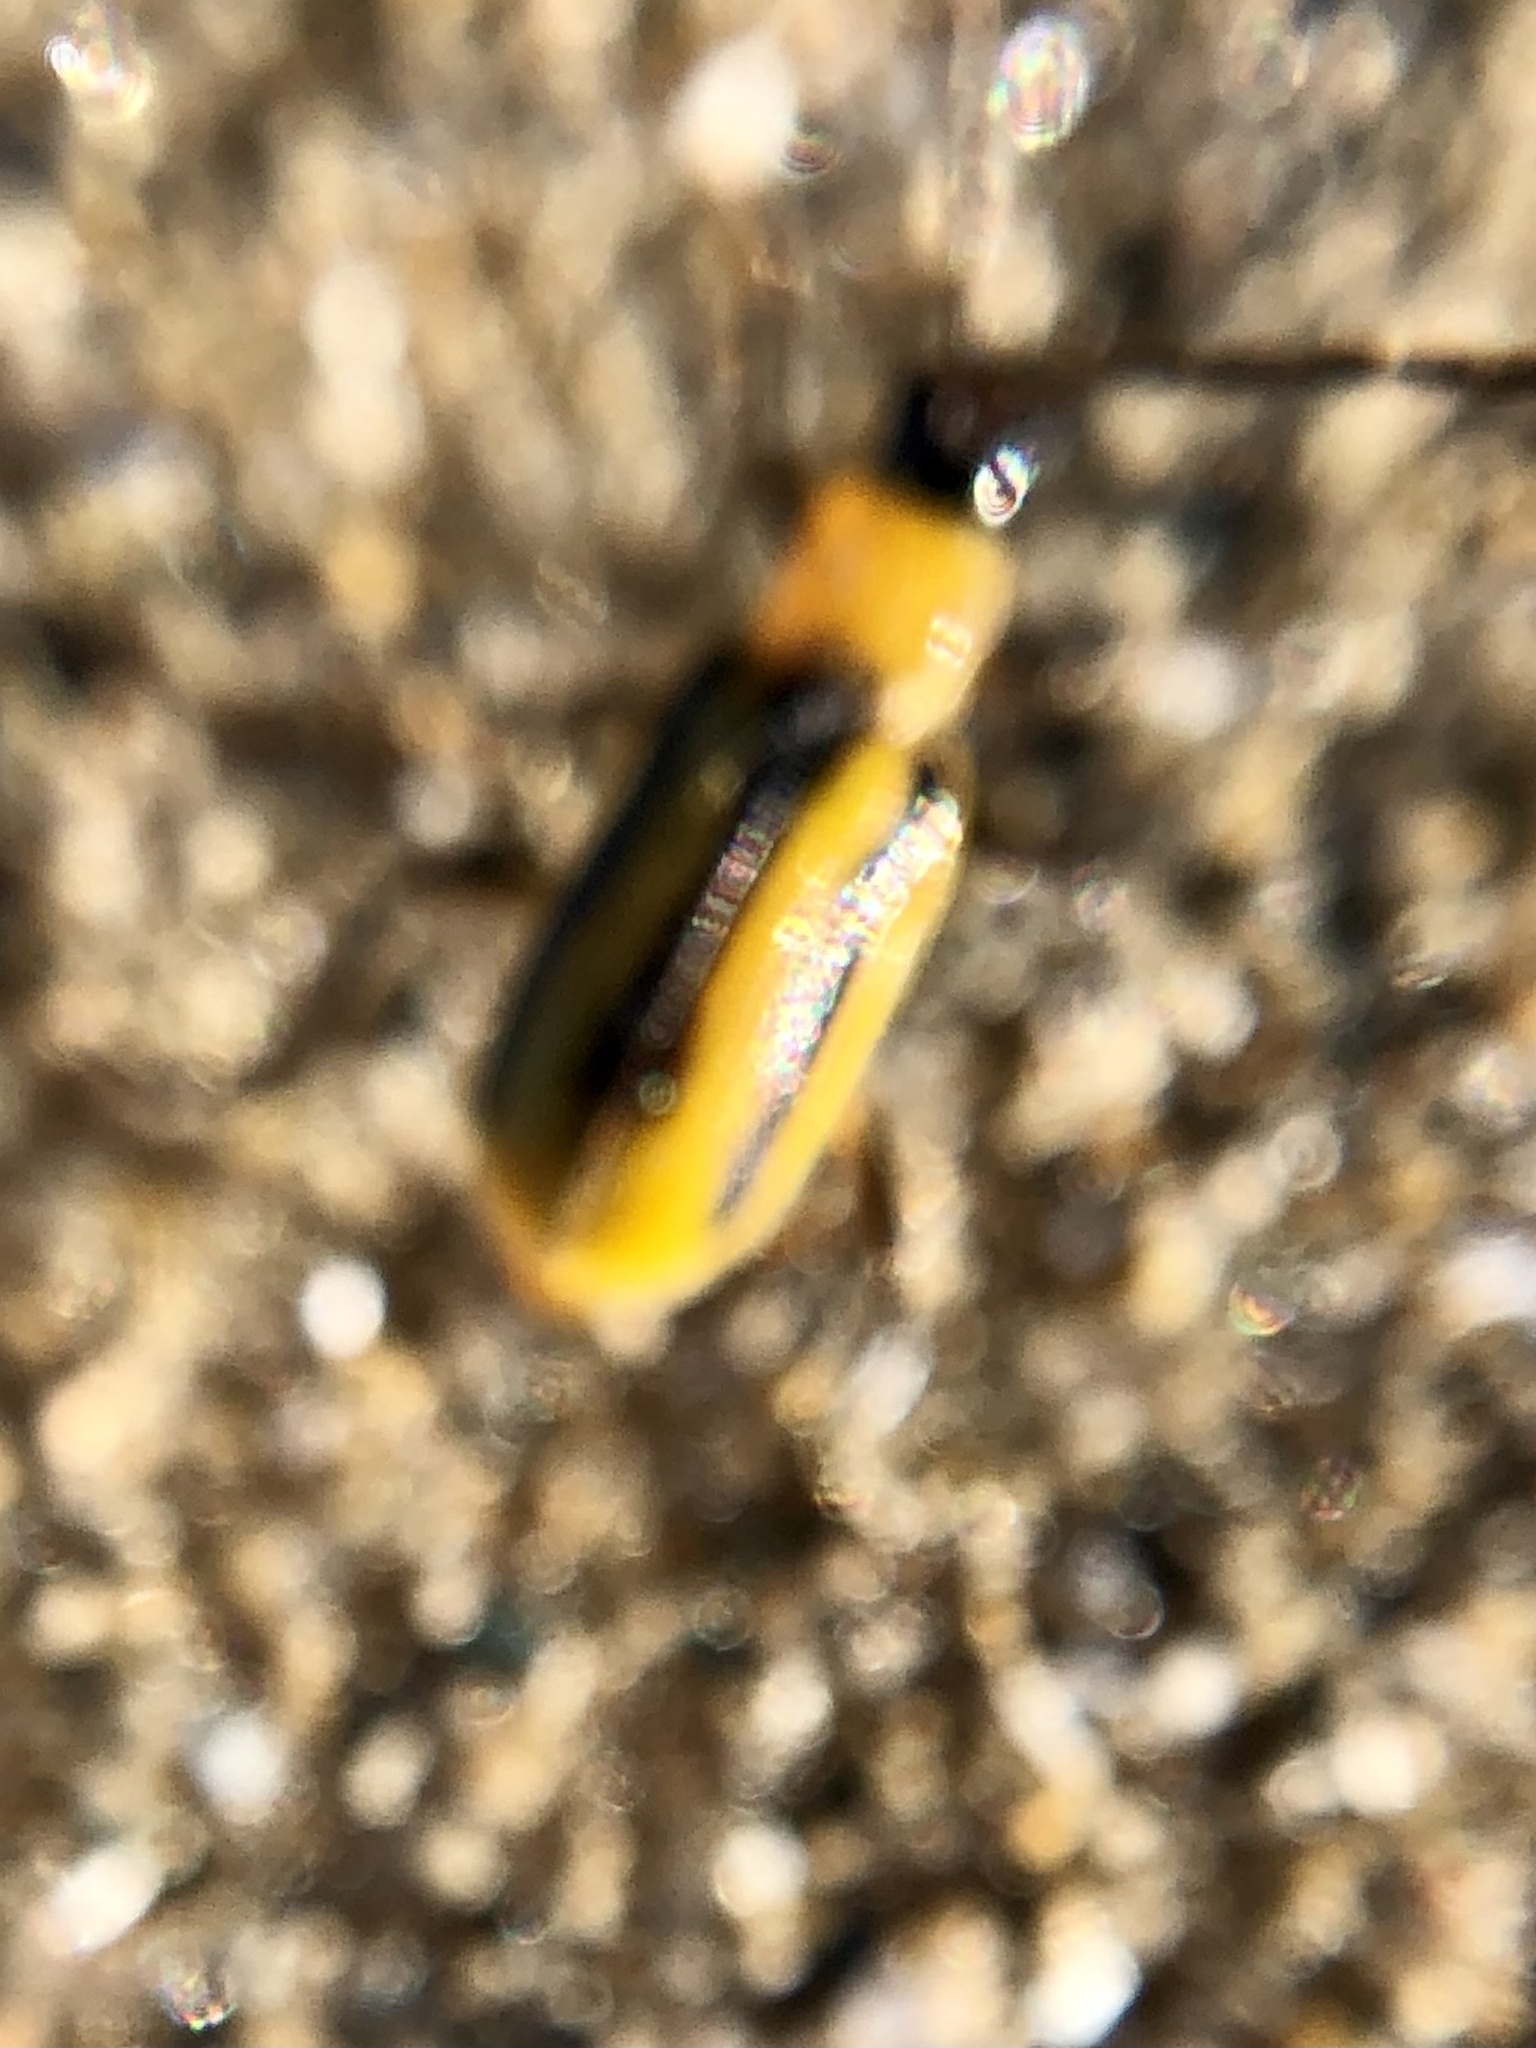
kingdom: Animalia
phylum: Arthropoda
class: Insecta
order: Coleoptera
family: Chrysomelidae
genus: Acalymma
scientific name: Acalymma vittatum
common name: Striped cucumber beetle
